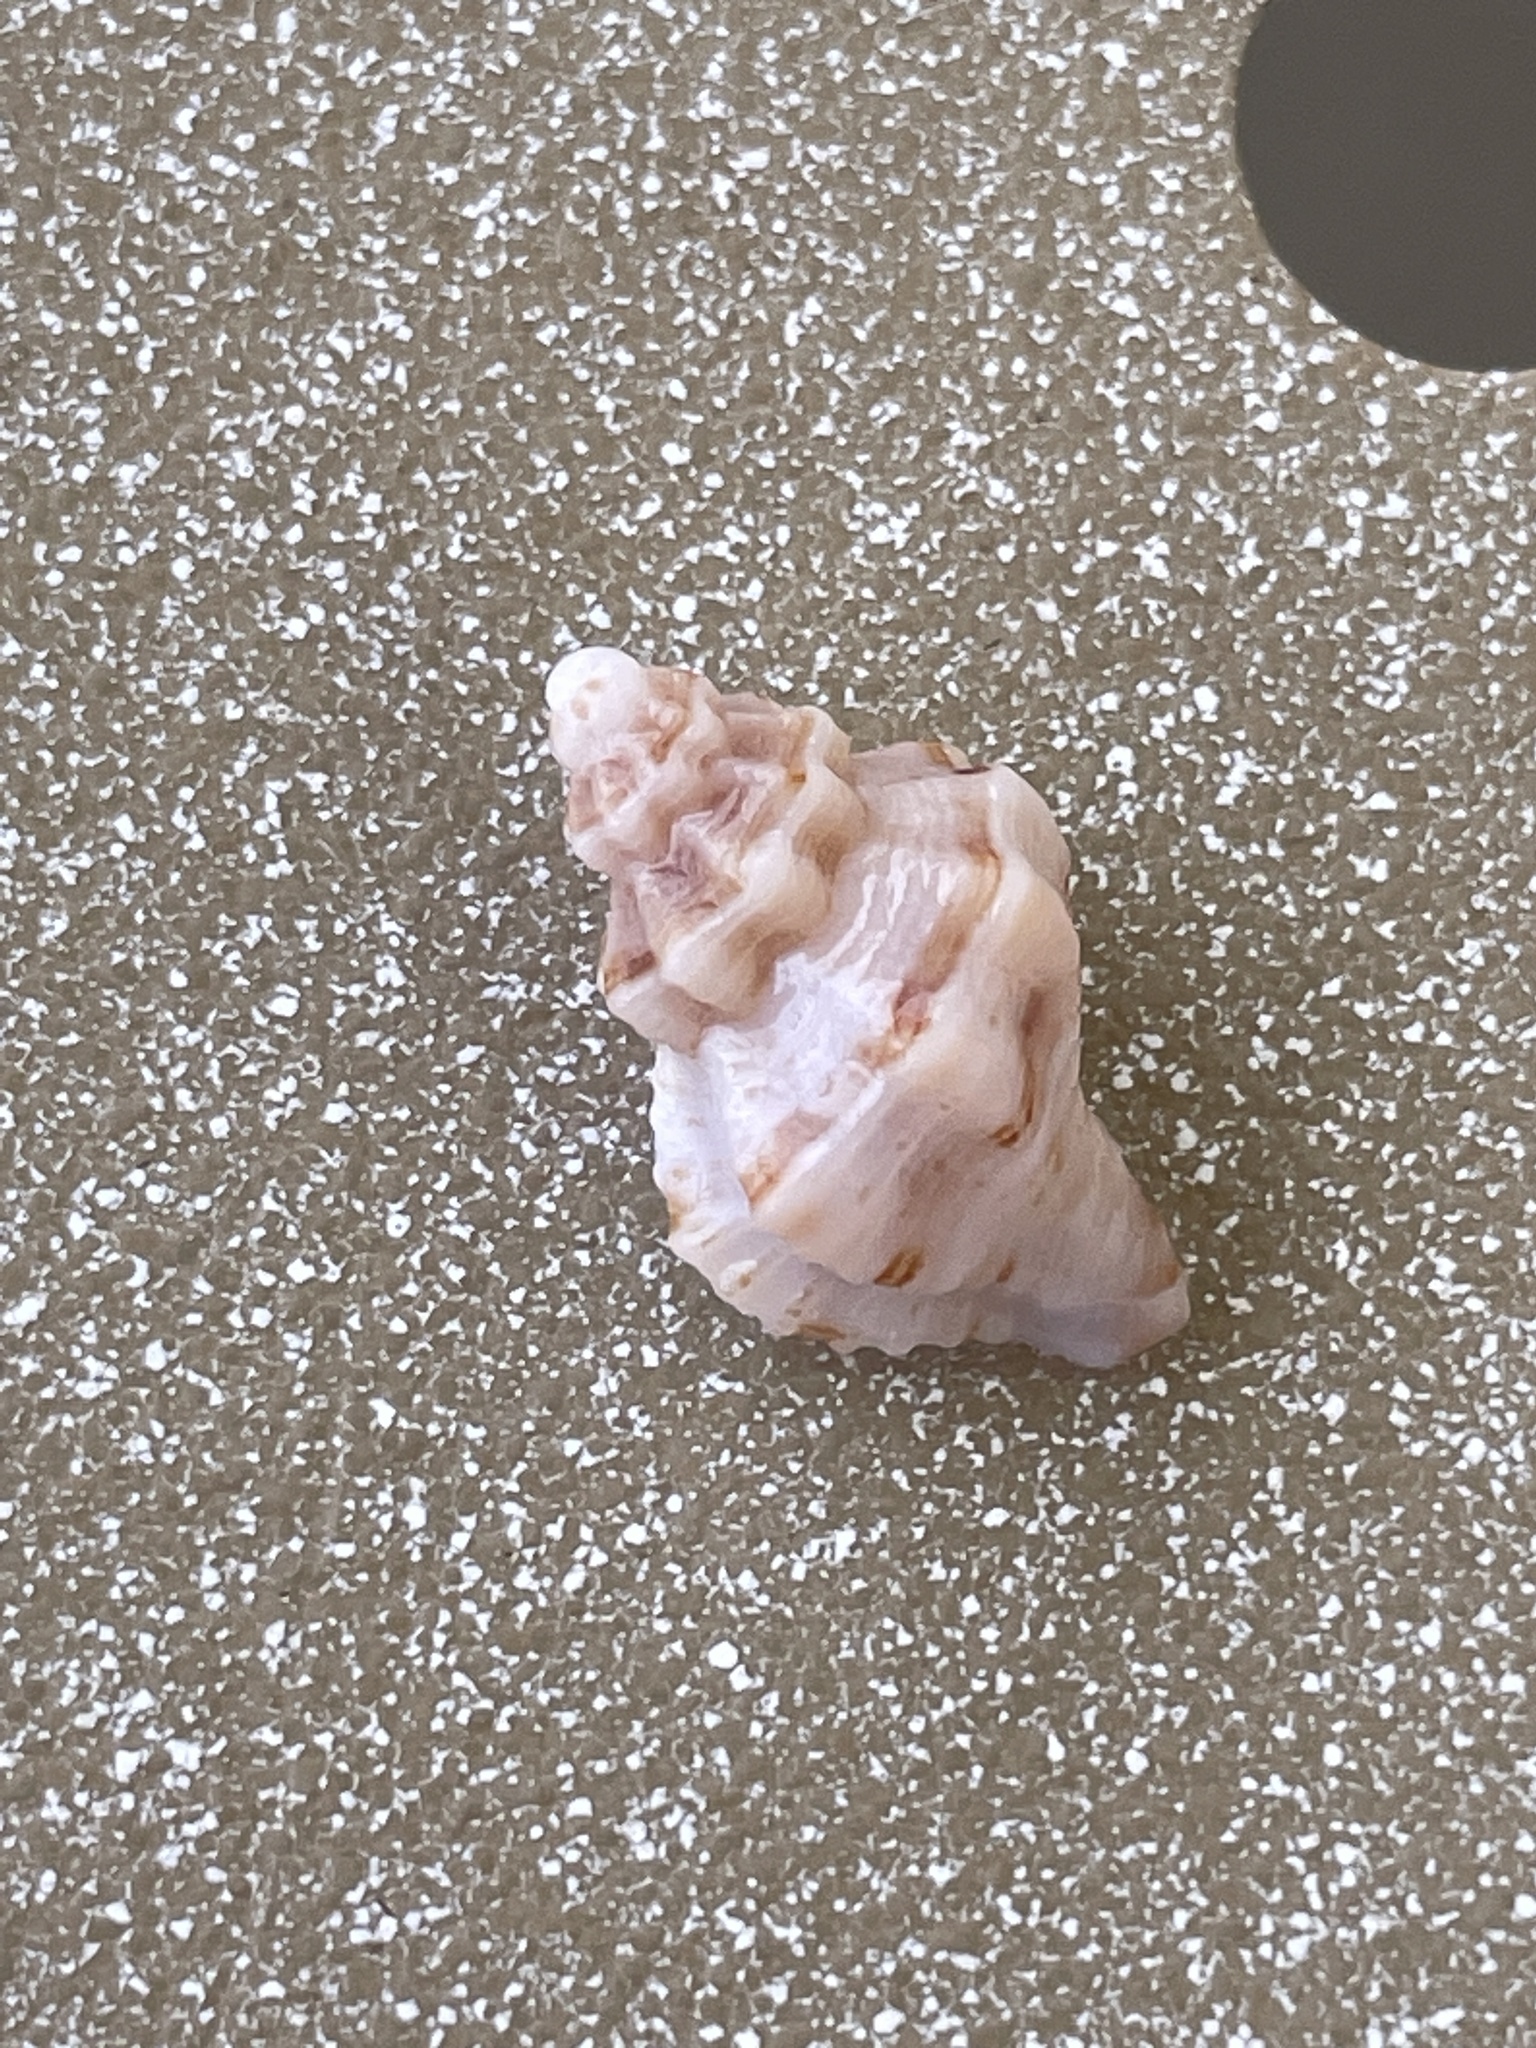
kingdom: Animalia
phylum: Mollusca
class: Gastropoda
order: Neogastropoda
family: Pisaniidae
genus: Hesperisternia
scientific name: Hesperisternia multangulus
